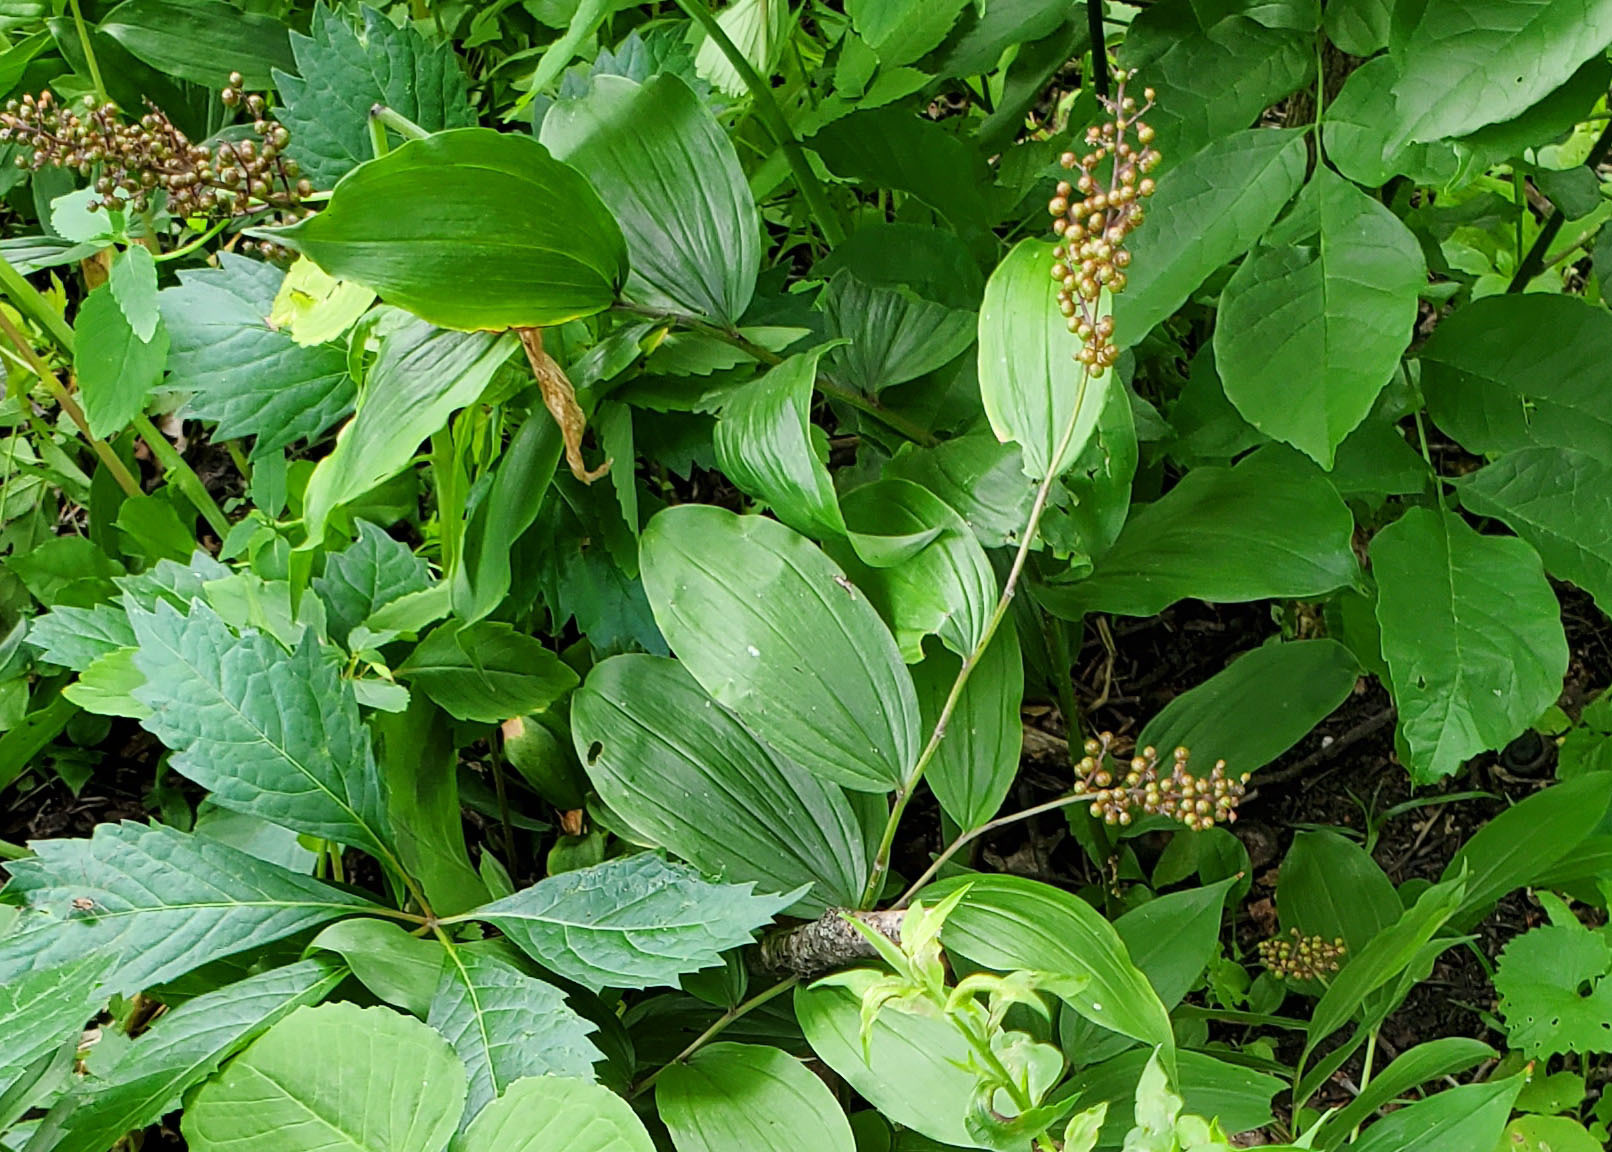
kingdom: Plantae
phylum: Tracheophyta
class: Liliopsida
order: Asparagales
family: Asparagaceae
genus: Maianthemum
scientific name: Maianthemum racemosum
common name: False spikenard
